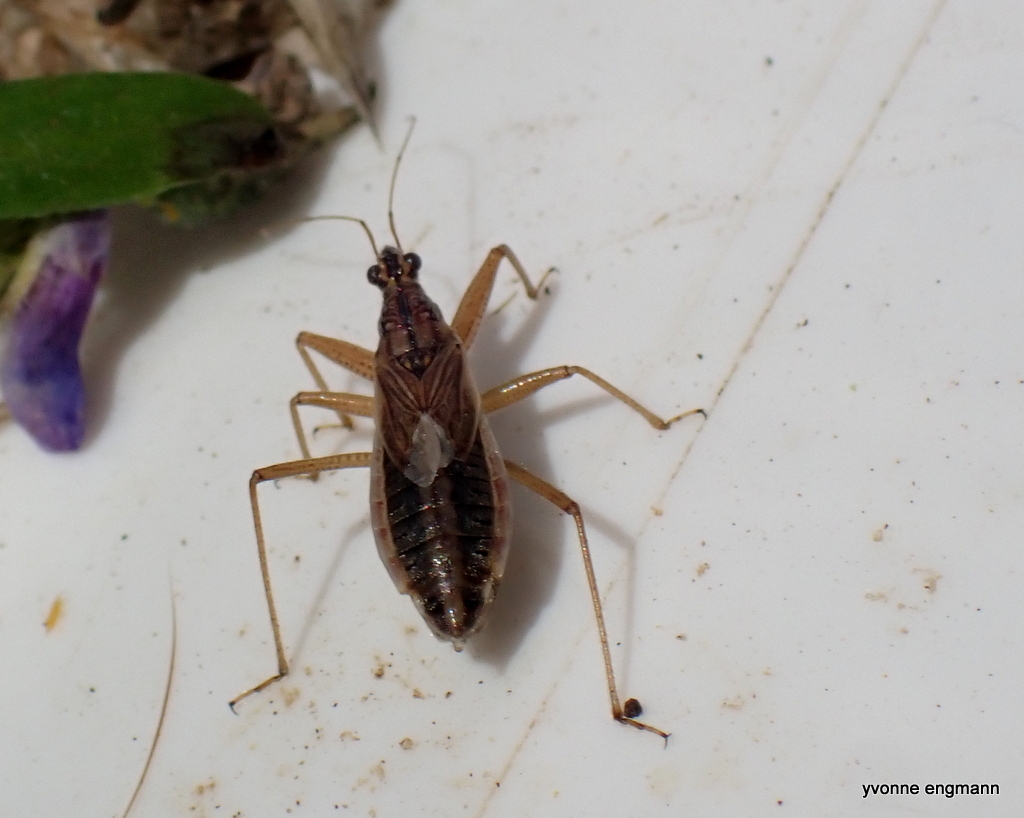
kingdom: Animalia
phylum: Arthropoda
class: Insecta
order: Hemiptera
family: Nabidae
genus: Nabis
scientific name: Nabis flavomarginatus
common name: Broad damselbug
